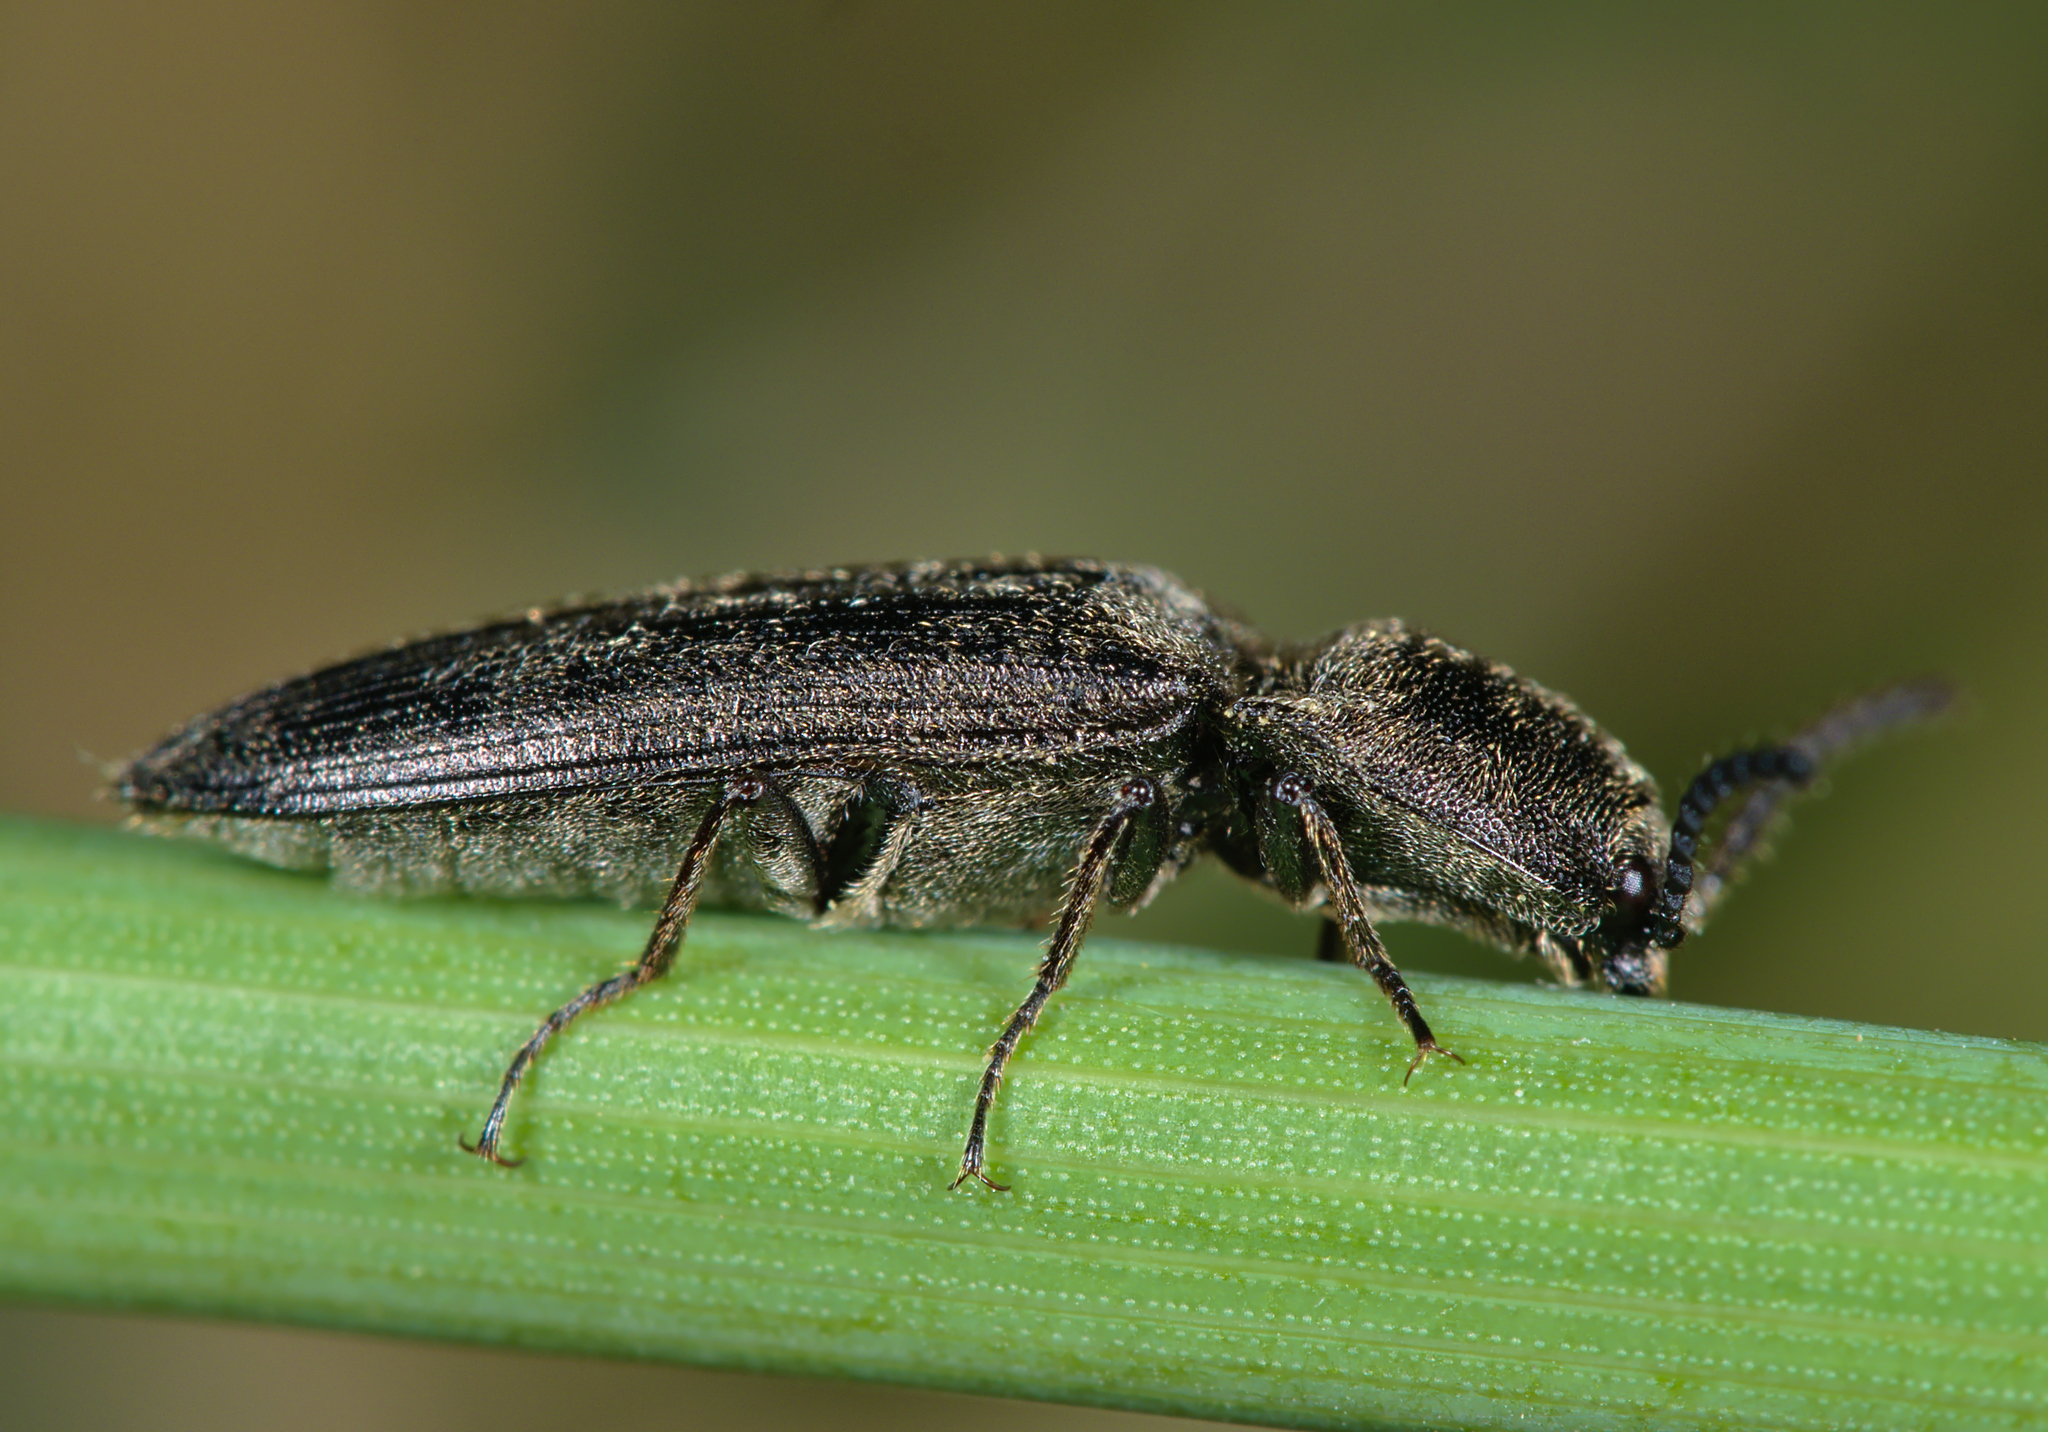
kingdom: Animalia
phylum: Arthropoda
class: Insecta
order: Coleoptera
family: Elateridae
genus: Cidnopus
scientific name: Cidnopus pilosus
